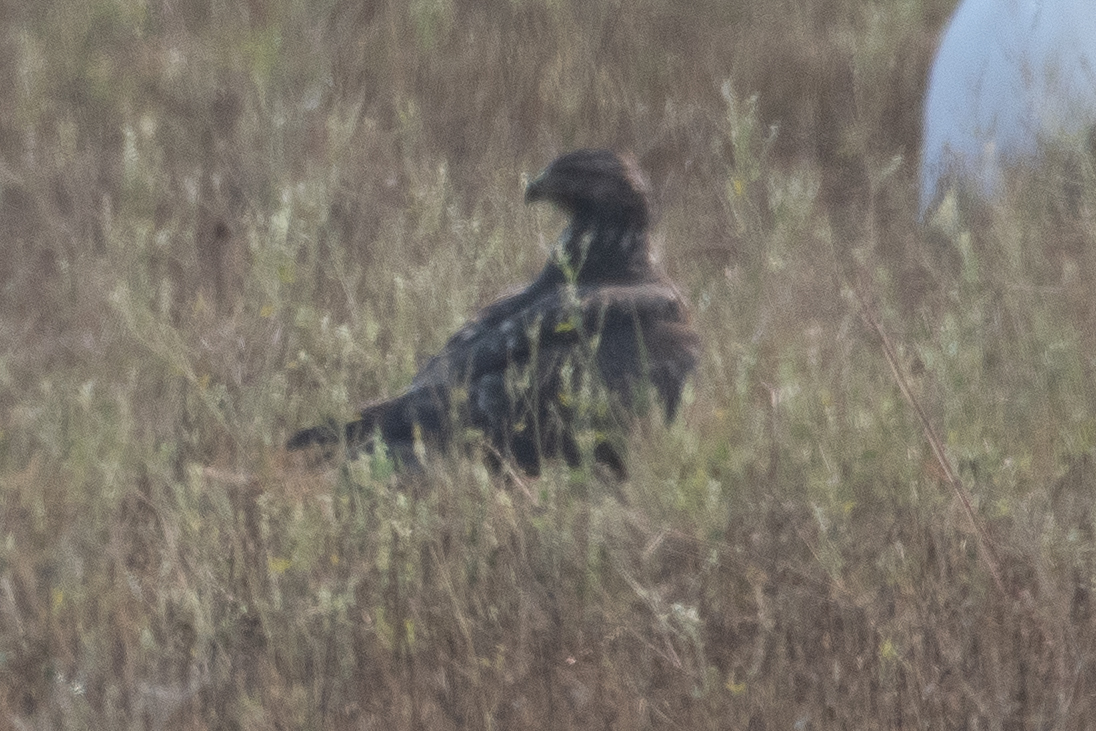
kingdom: Animalia
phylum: Chordata
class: Aves
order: Accipitriformes
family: Accipitridae
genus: Buteo
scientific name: Buteo jamaicensis
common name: Red-tailed hawk
